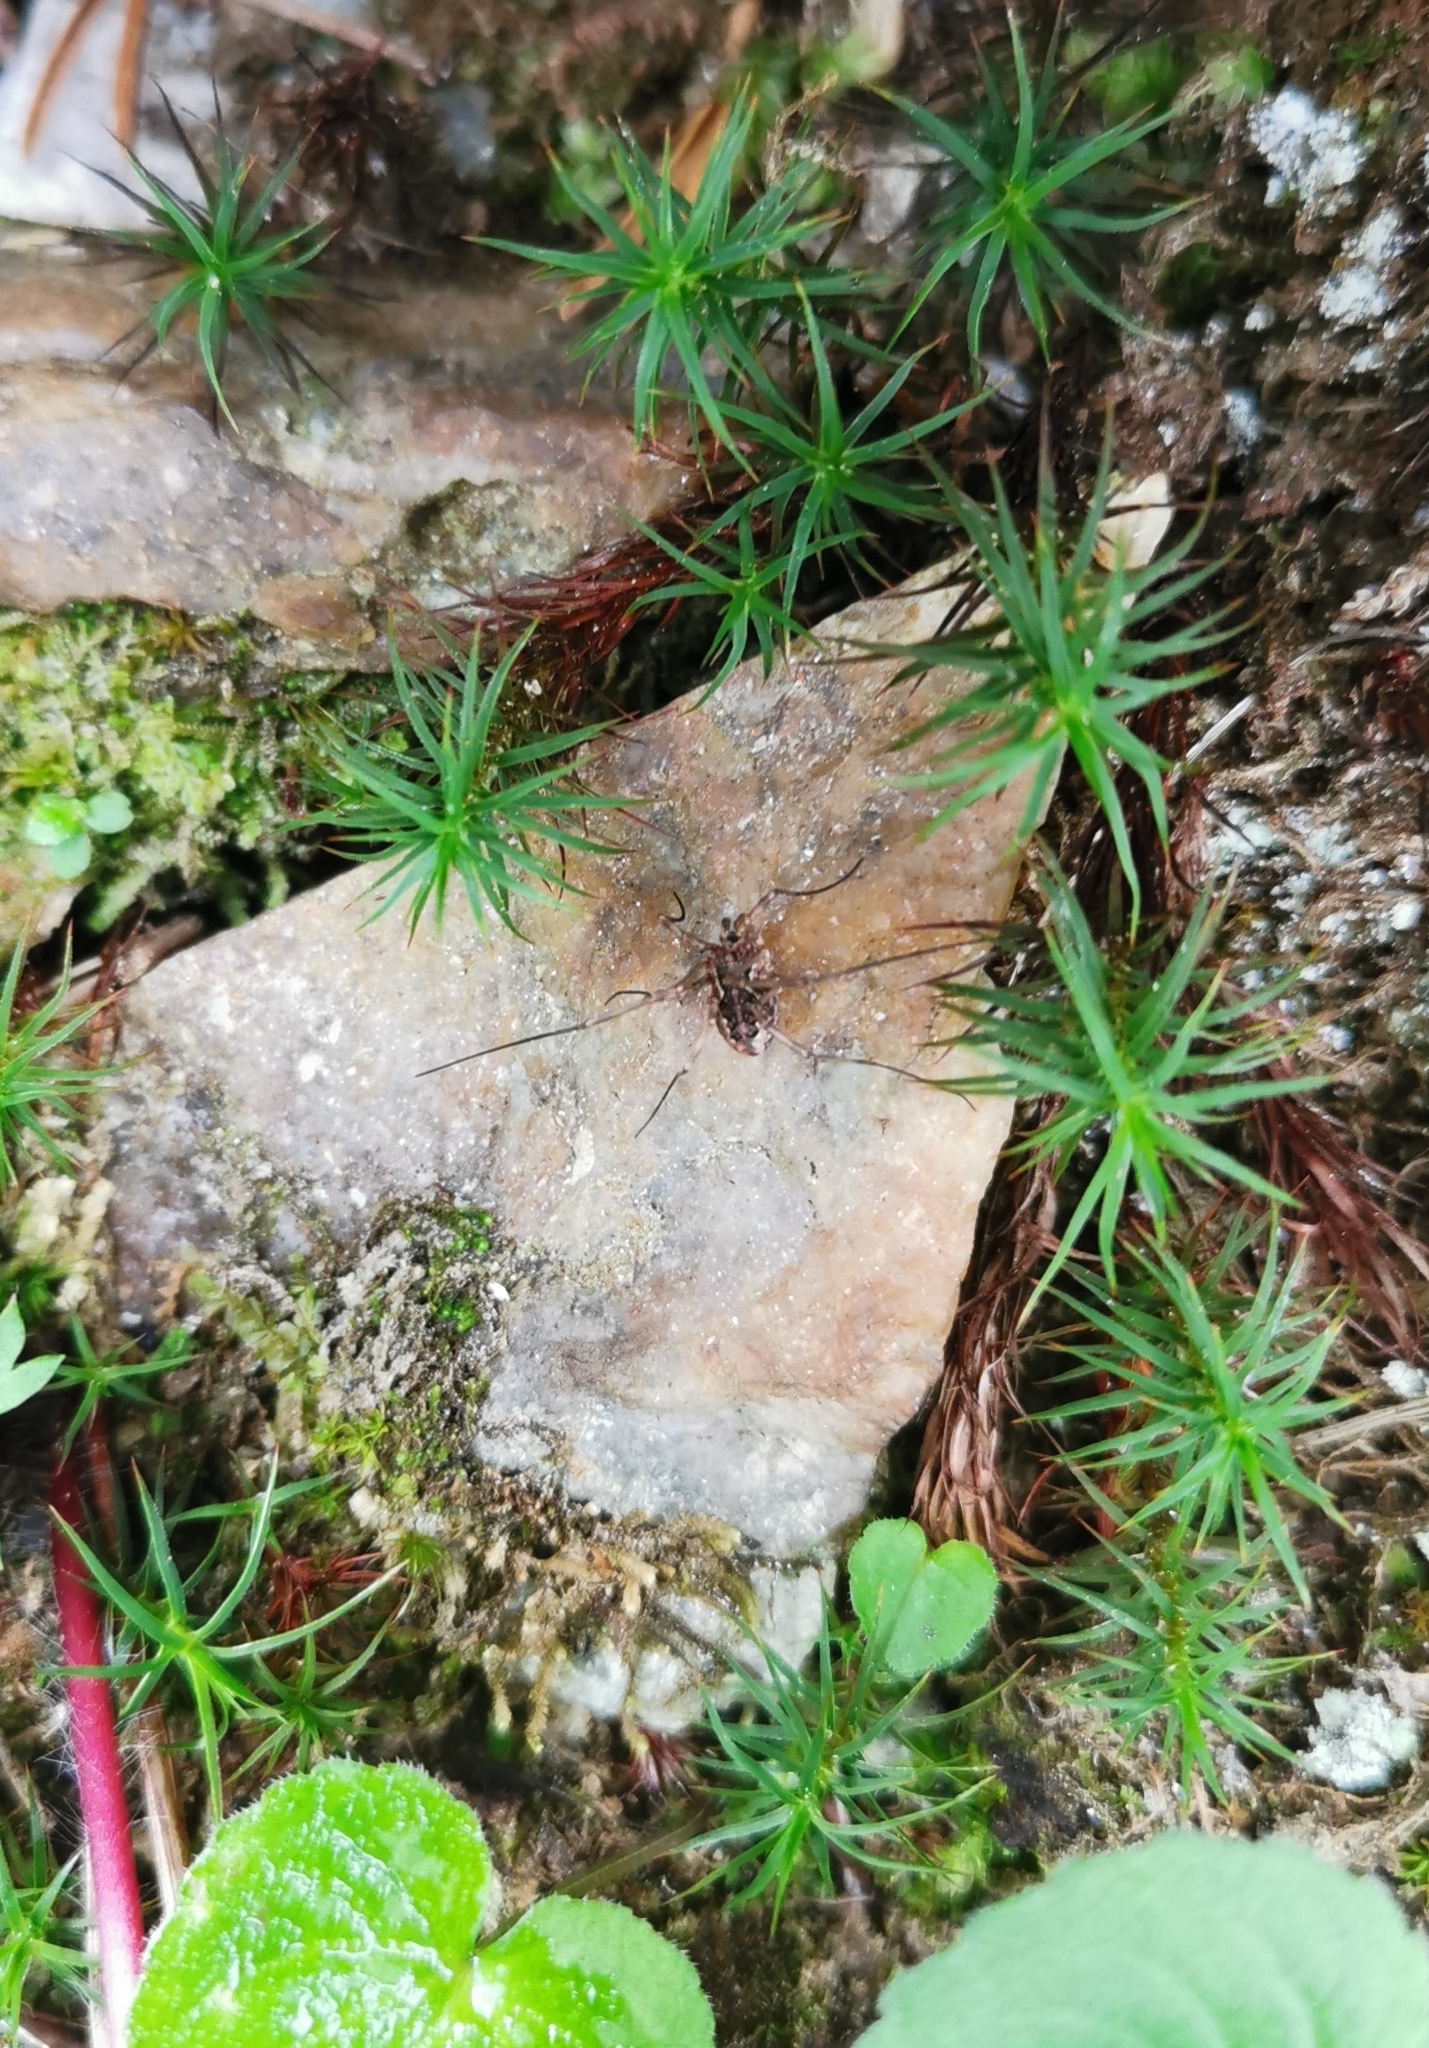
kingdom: Animalia
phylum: Arthropoda
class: Arachnida
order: Opiliones
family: Phalangiidae
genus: Mitopus
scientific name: Mitopus morio
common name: Saddleback harvestman
